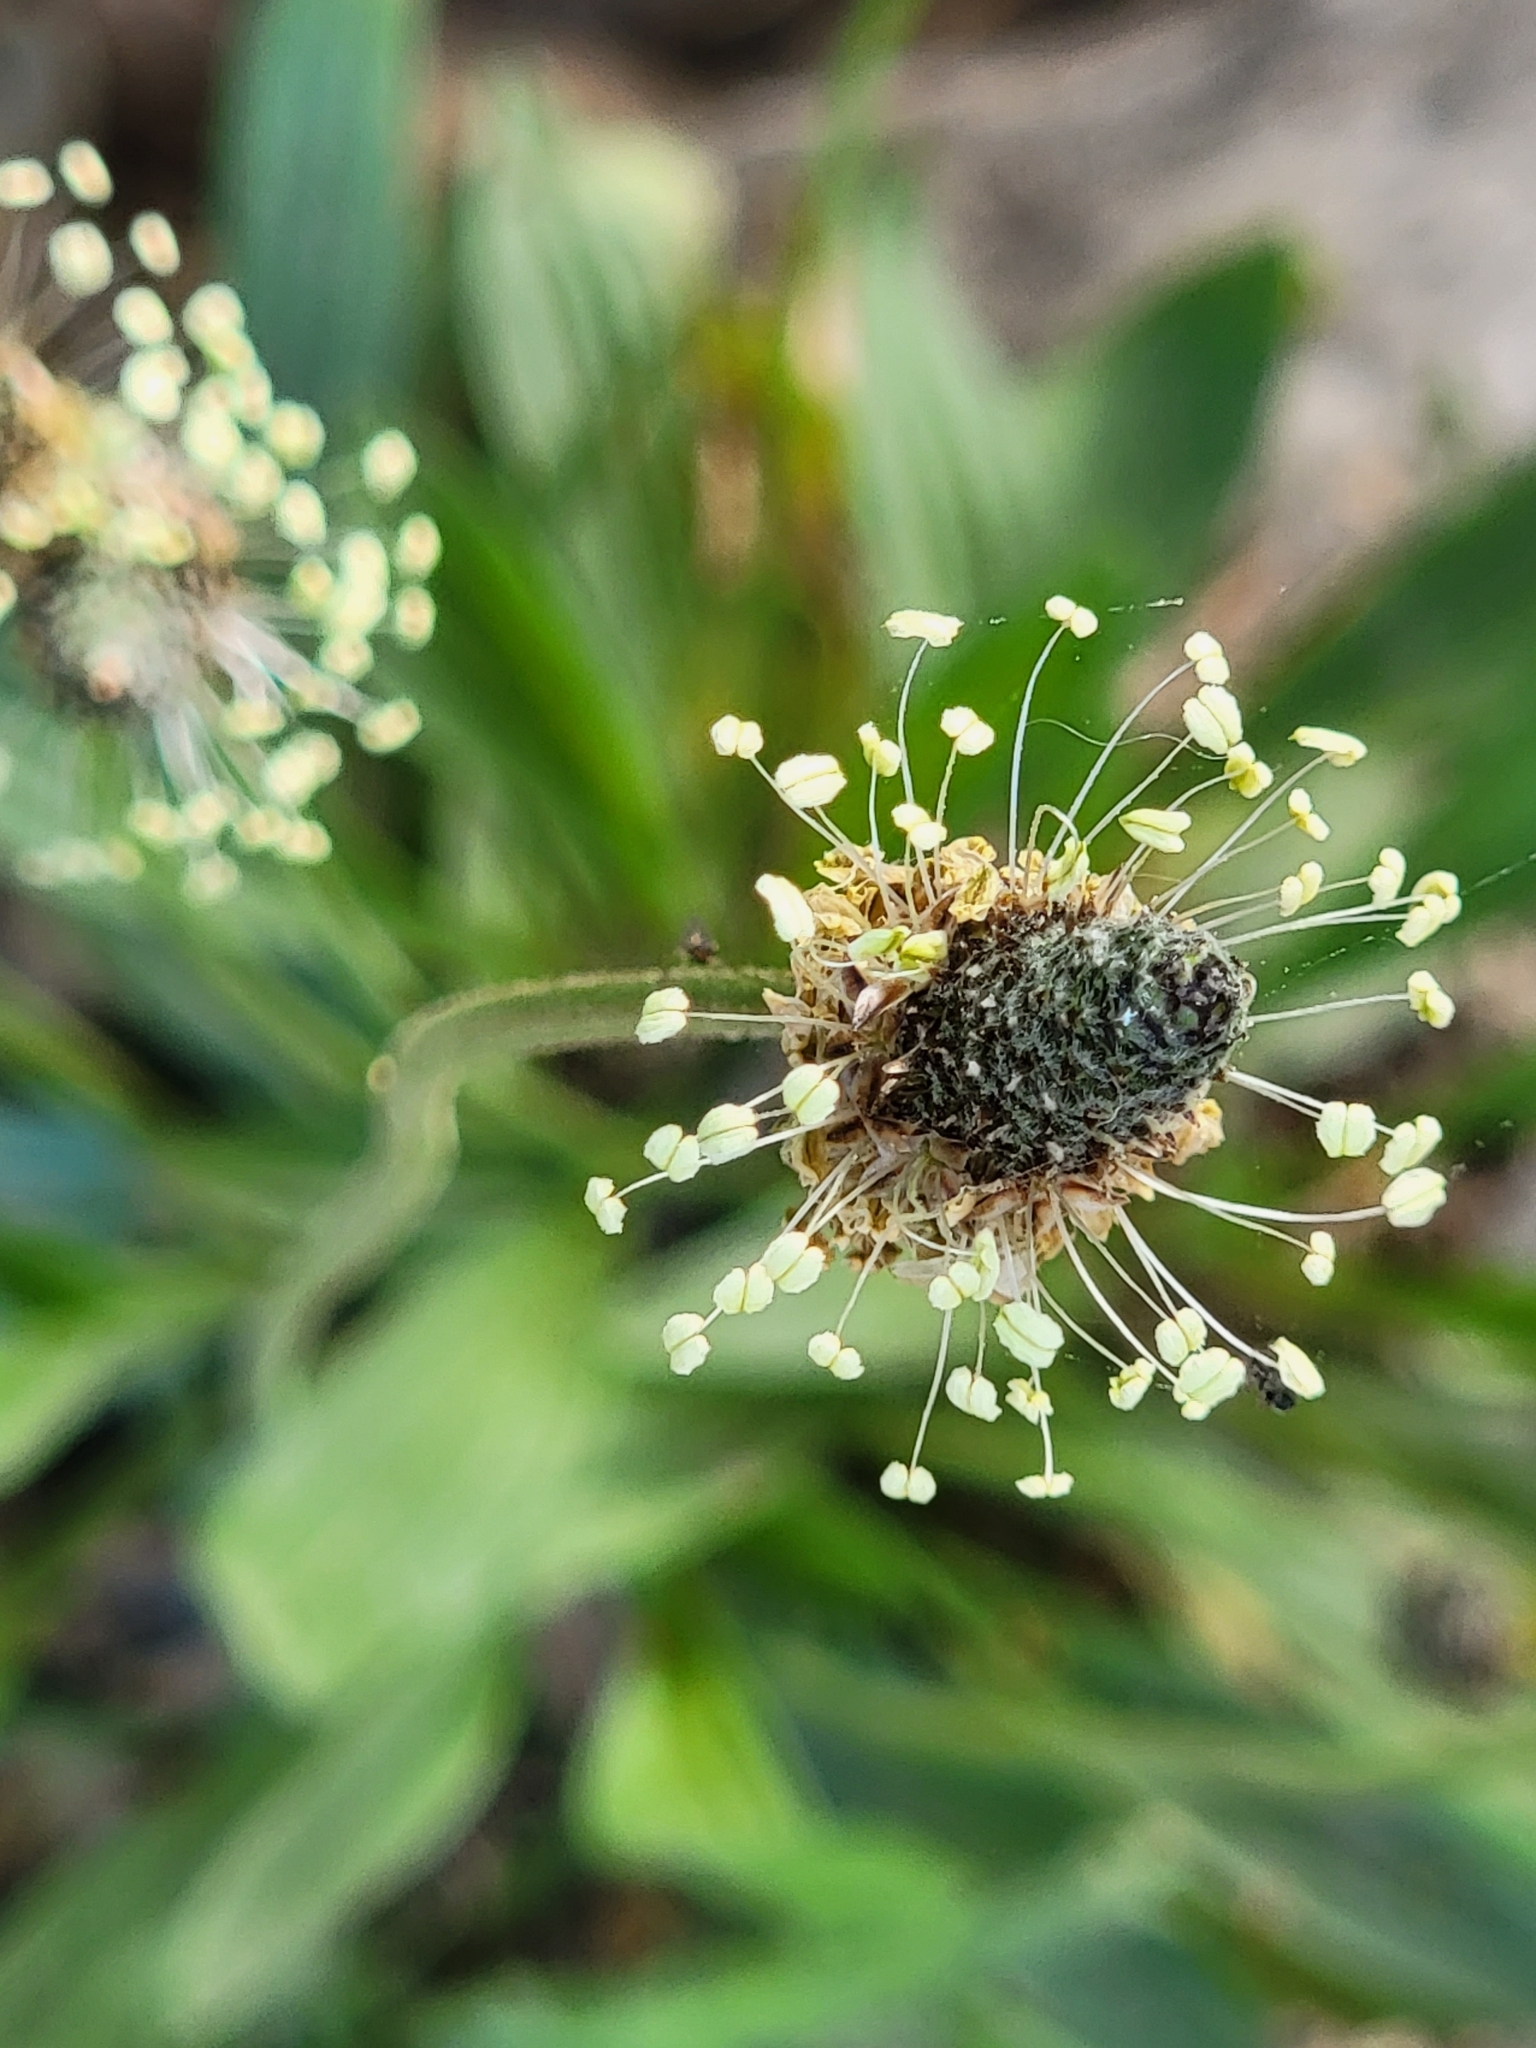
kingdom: Plantae
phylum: Tracheophyta
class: Magnoliopsida
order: Lamiales
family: Plantaginaceae
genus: Plantago
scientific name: Plantago lanceolata
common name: Ribwort plantain
